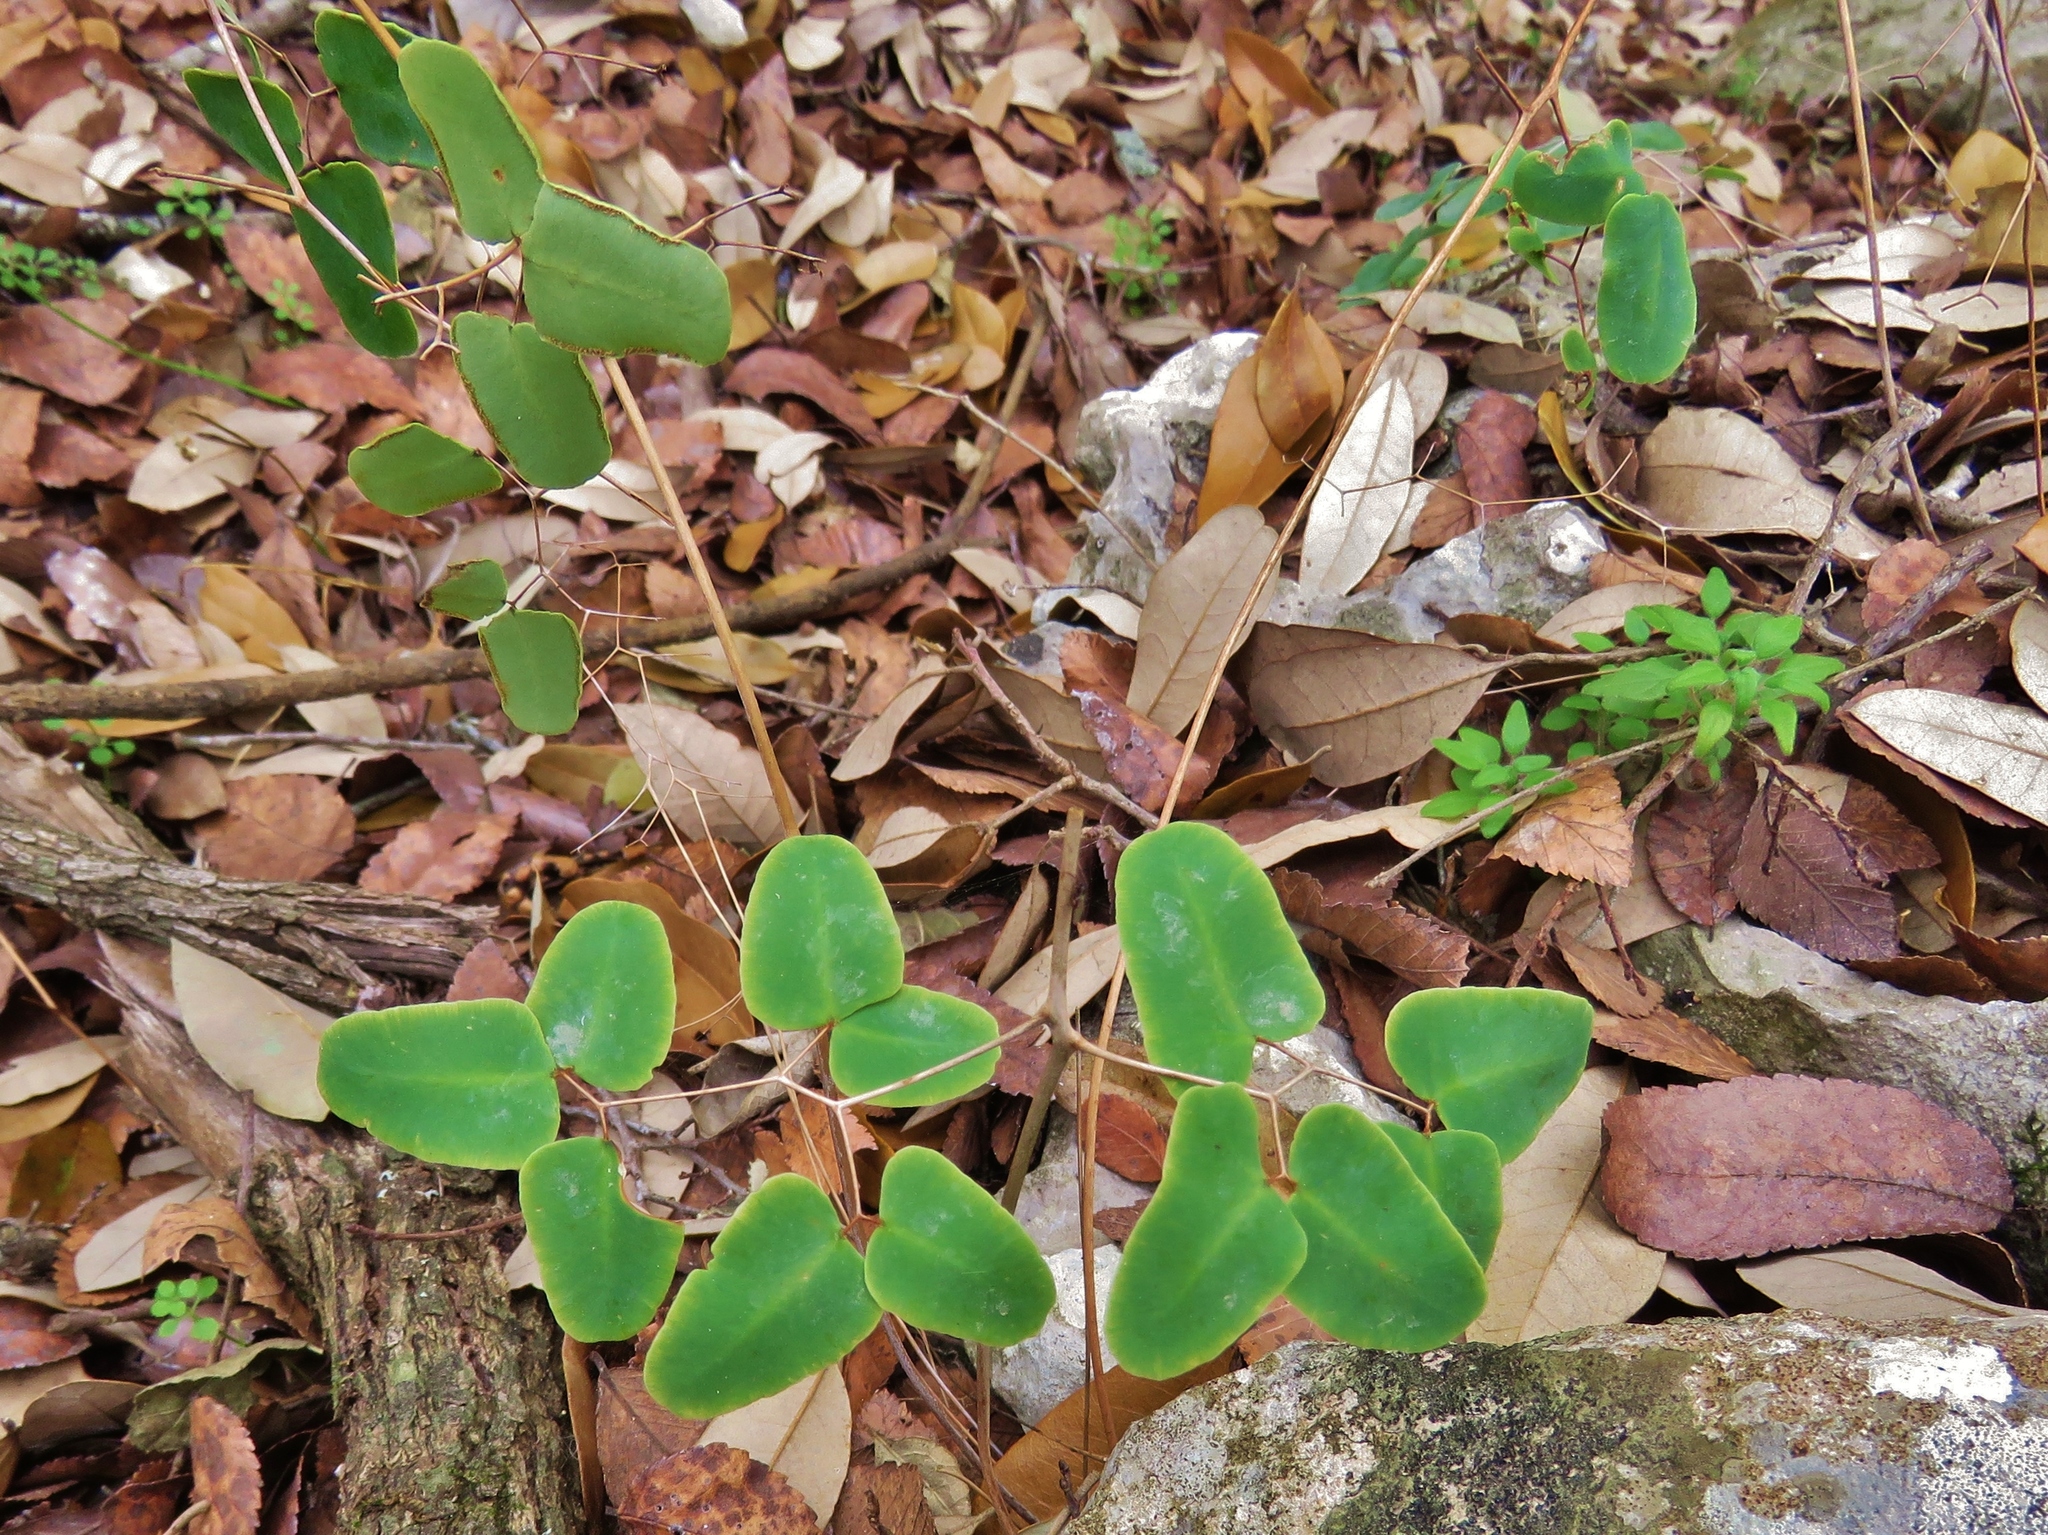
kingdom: Plantae
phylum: Tracheophyta
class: Polypodiopsida
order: Polypodiales
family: Pteridaceae
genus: Pellaea
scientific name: Pellaea ovata
